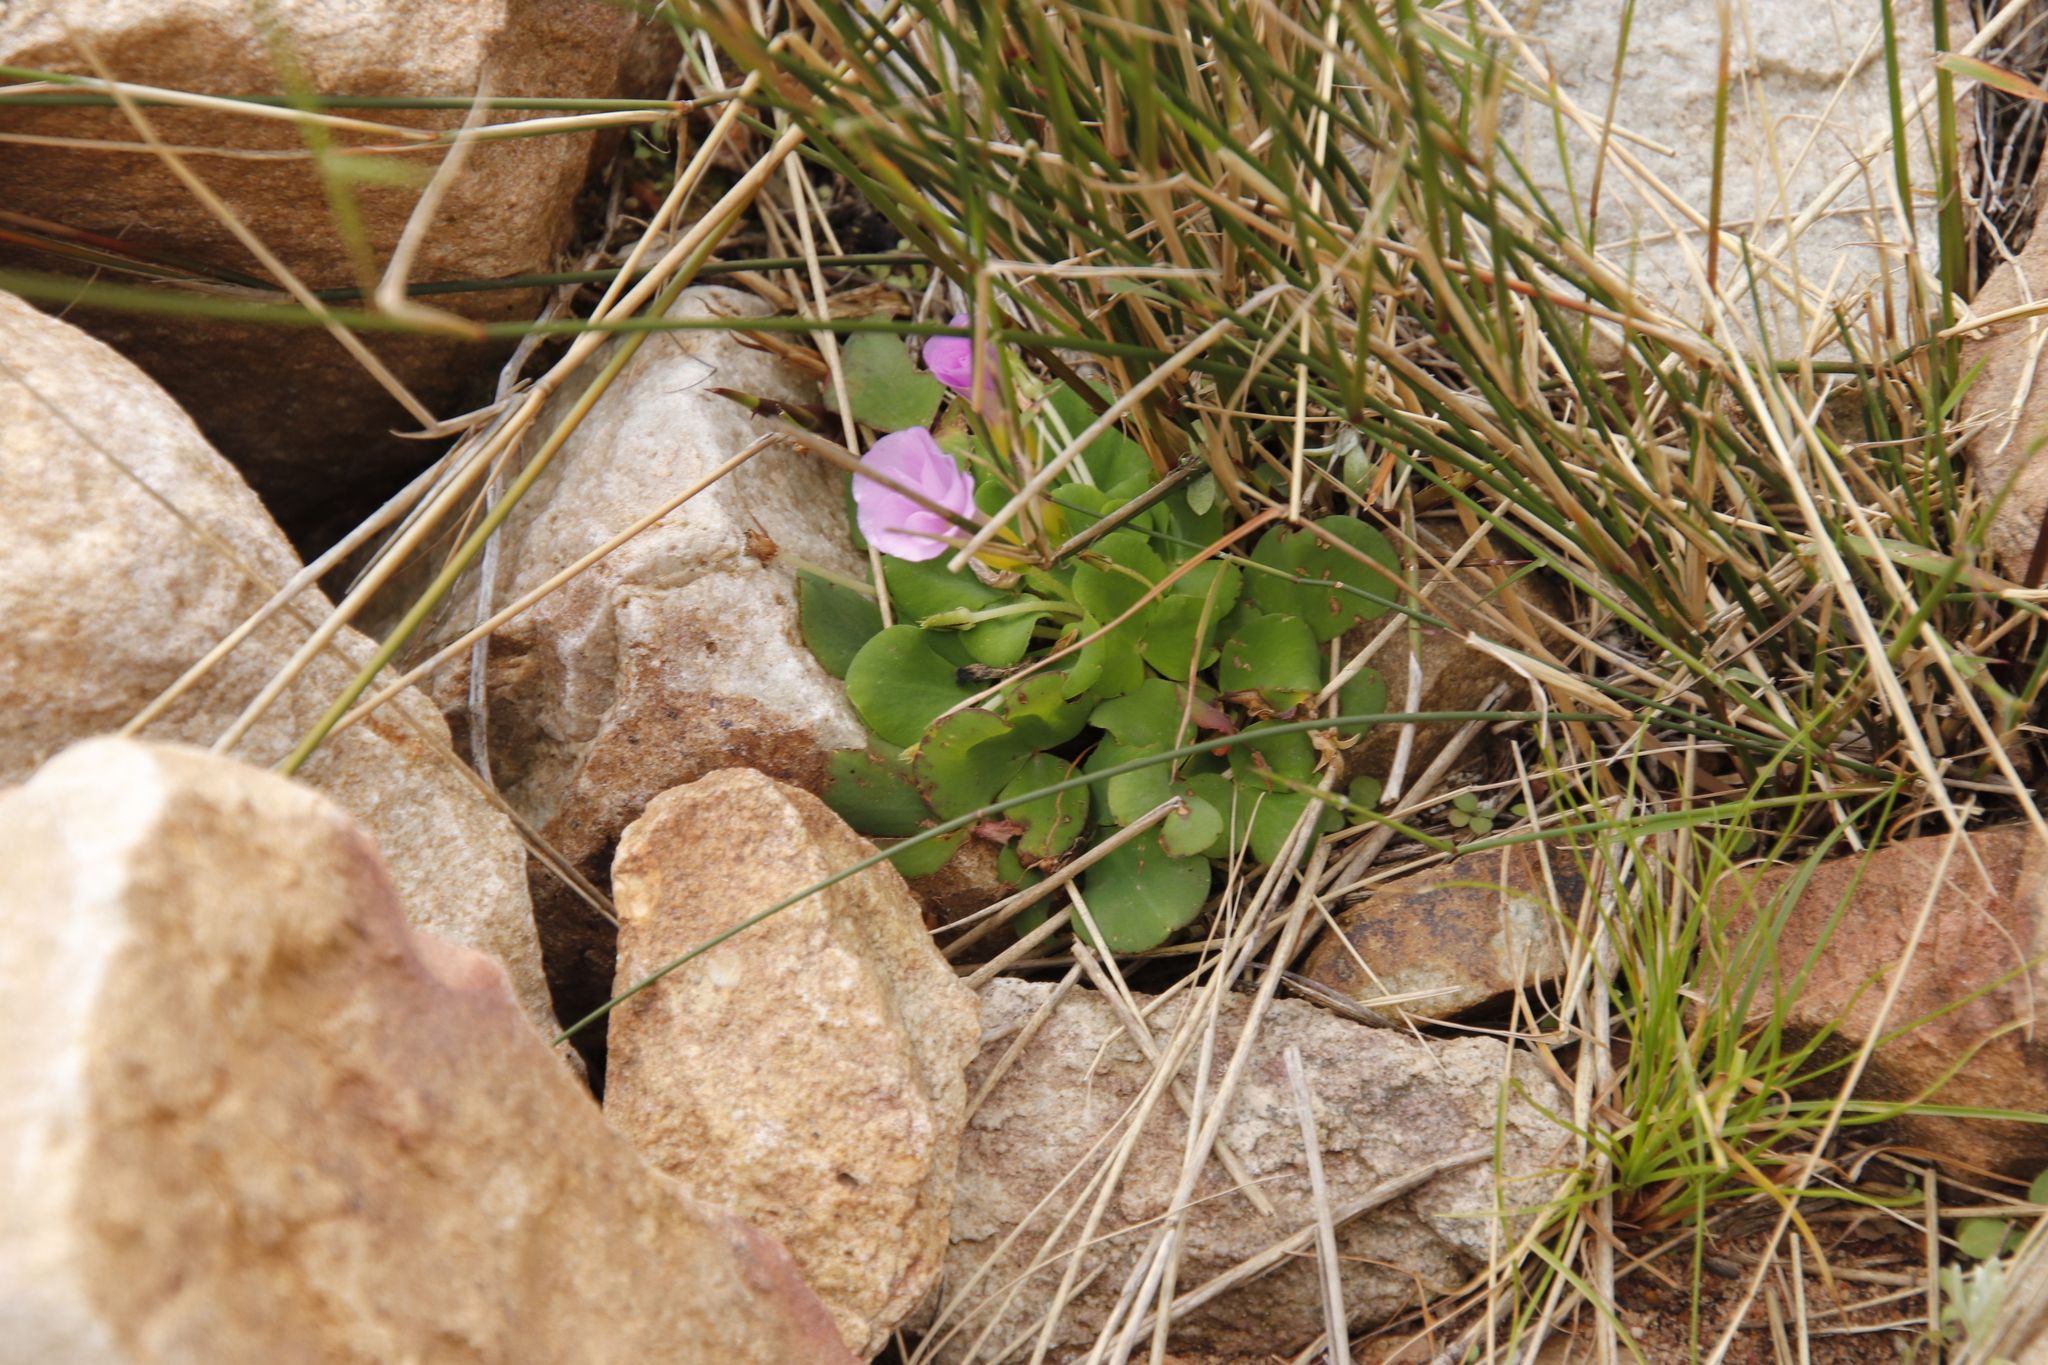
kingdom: Plantae
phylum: Tracheophyta
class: Magnoliopsida
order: Oxalidales
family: Oxalidaceae
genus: Oxalis
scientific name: Oxalis purpurea
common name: Purple woodsorrel
